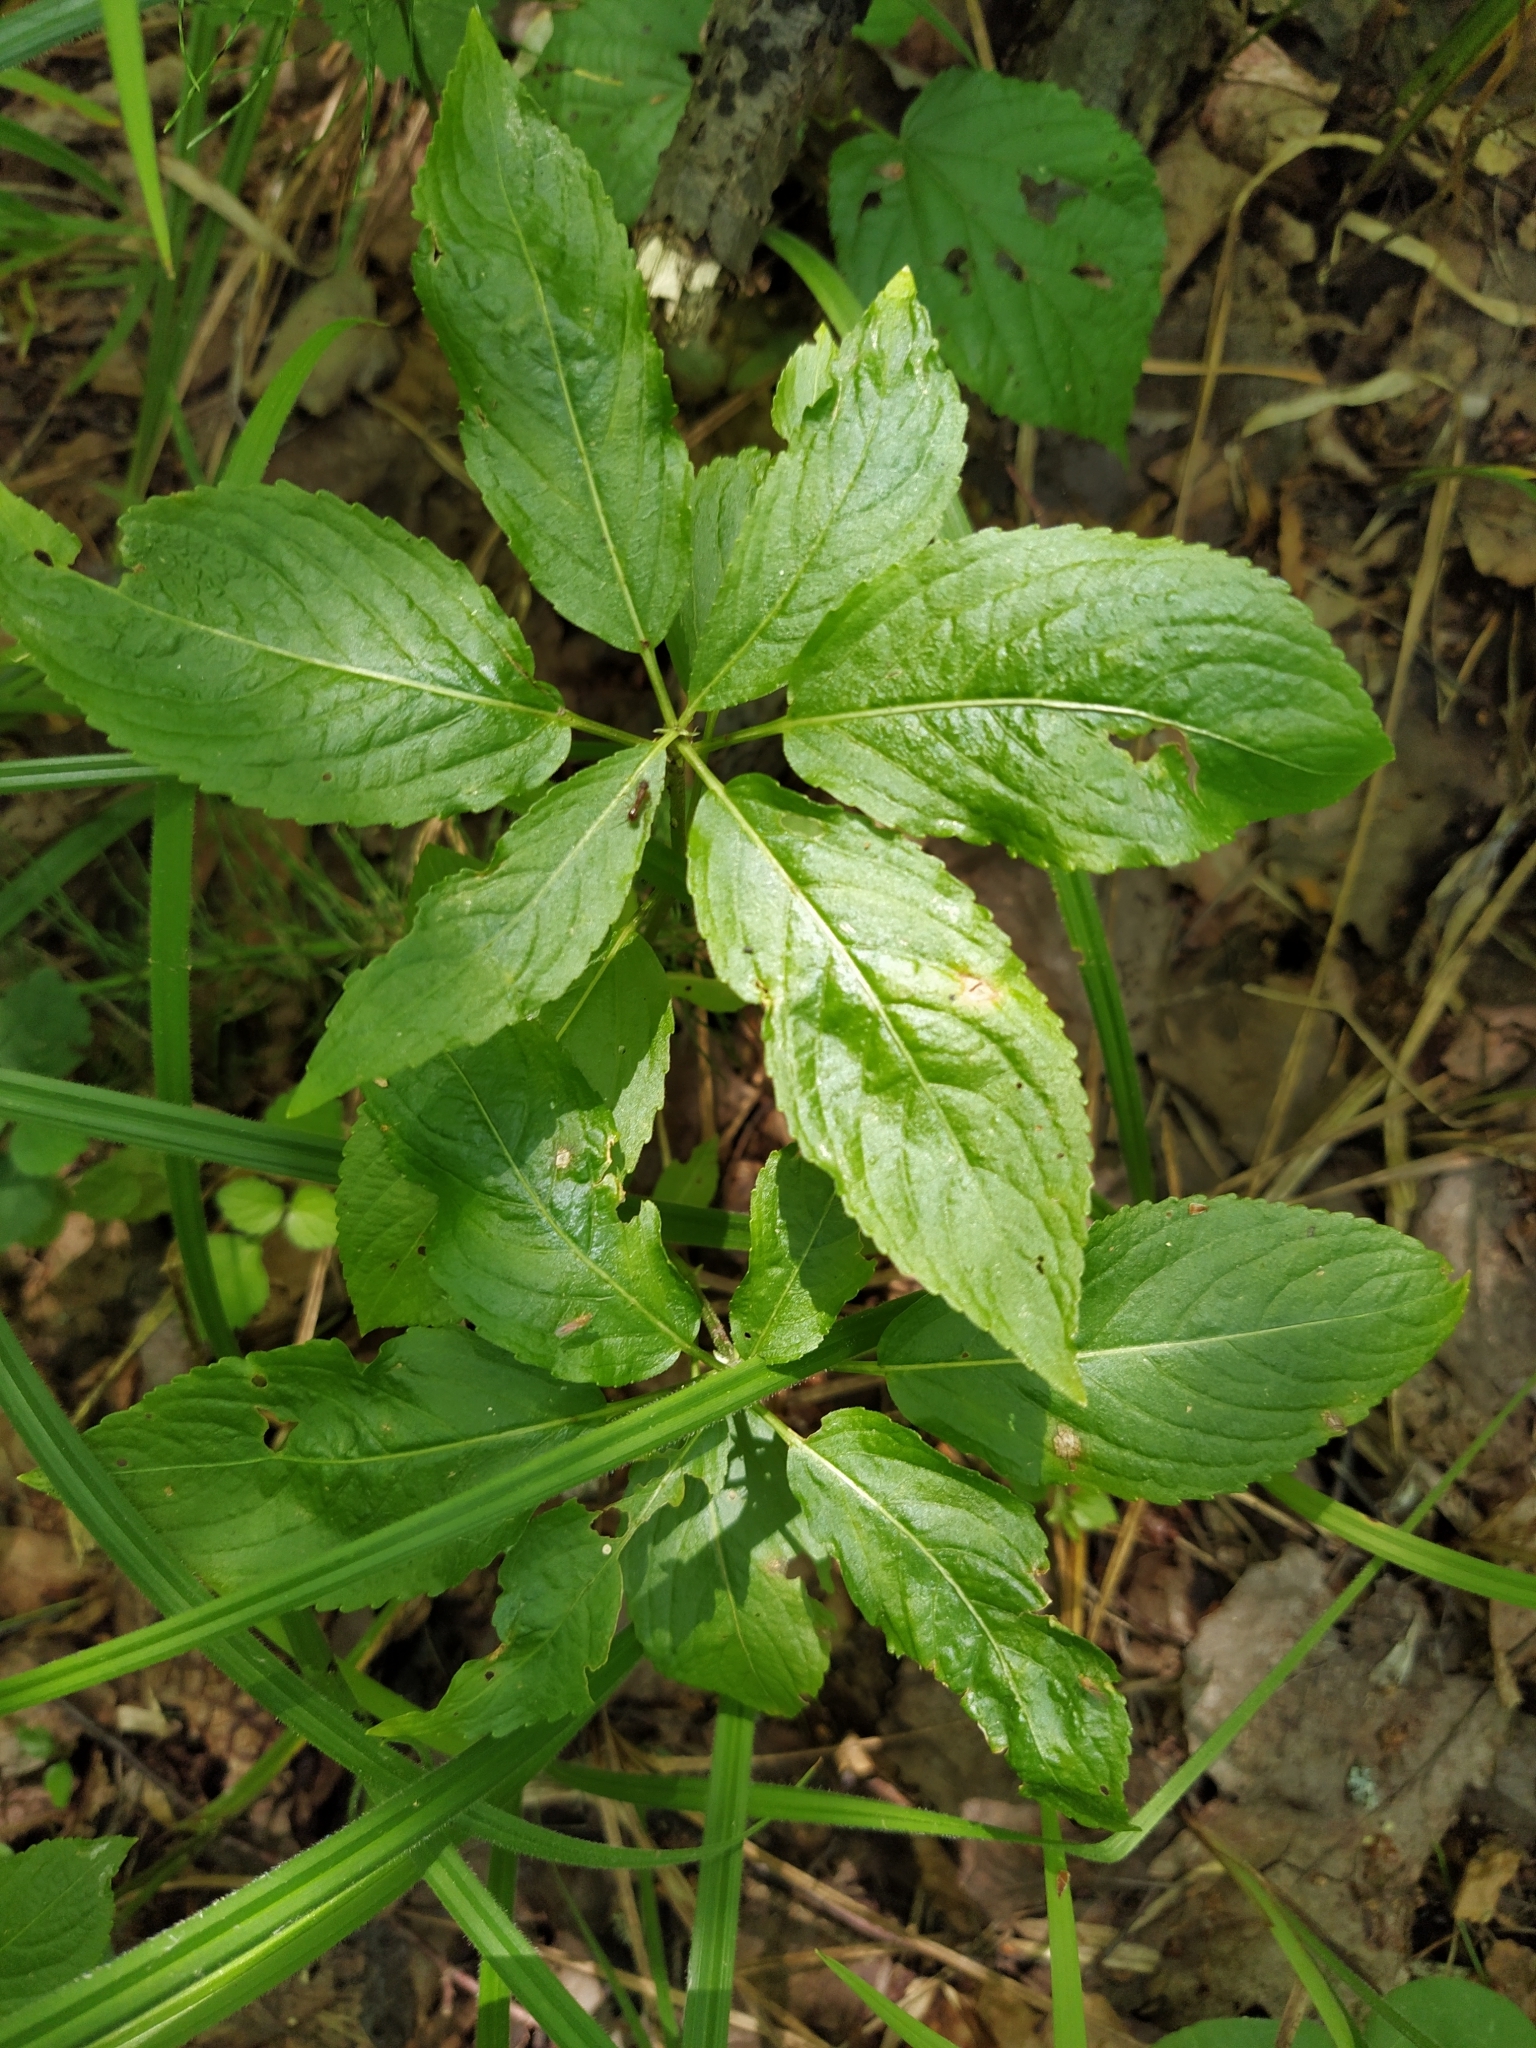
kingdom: Plantae
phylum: Tracheophyta
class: Magnoliopsida
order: Malpighiales
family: Euphorbiaceae
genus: Mercurialis
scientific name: Mercurialis perennis
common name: Dog mercury
